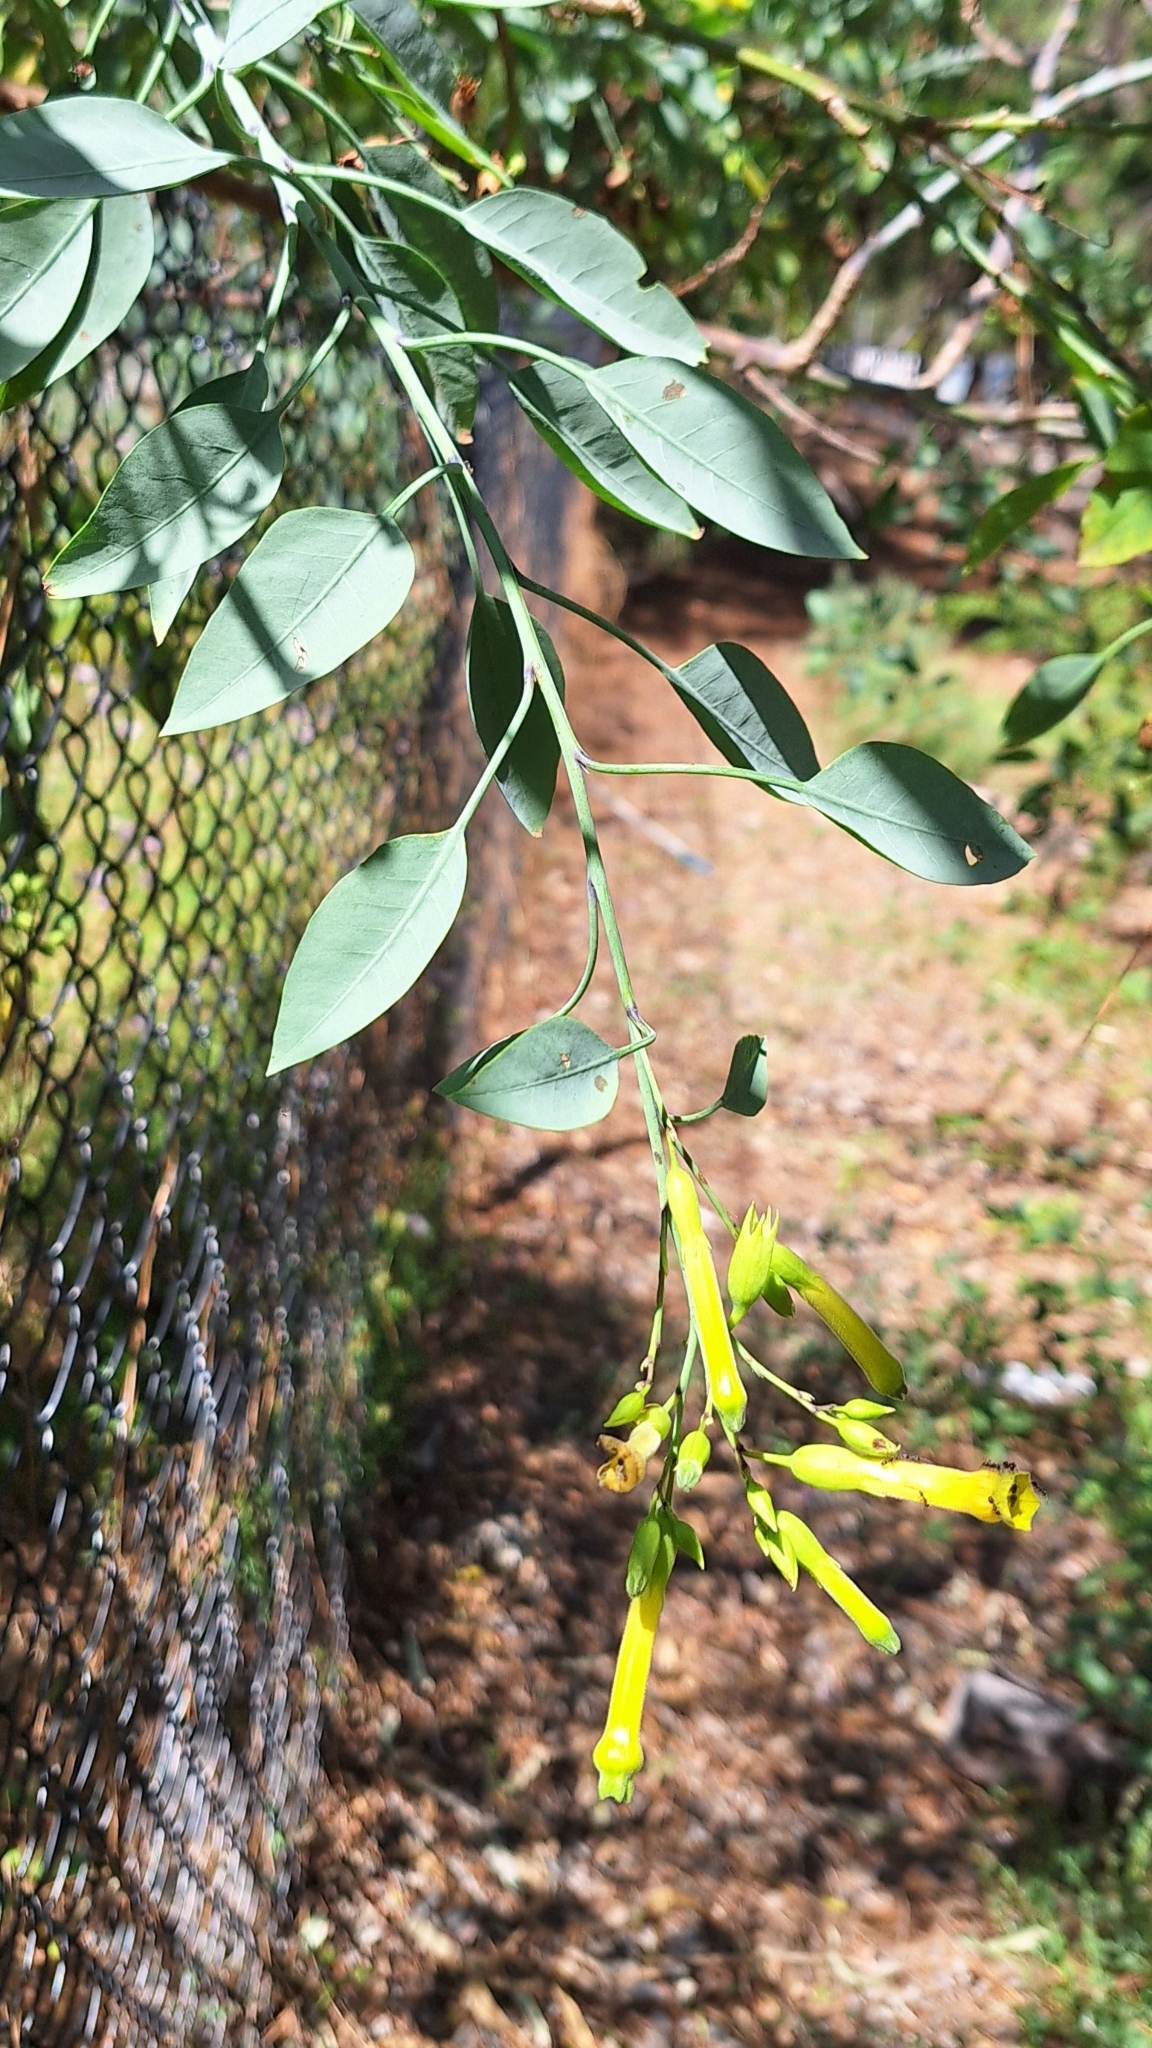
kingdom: Plantae
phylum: Tracheophyta
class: Magnoliopsida
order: Solanales
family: Solanaceae
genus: Nicotiana
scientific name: Nicotiana glauca
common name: Tree tobacco
